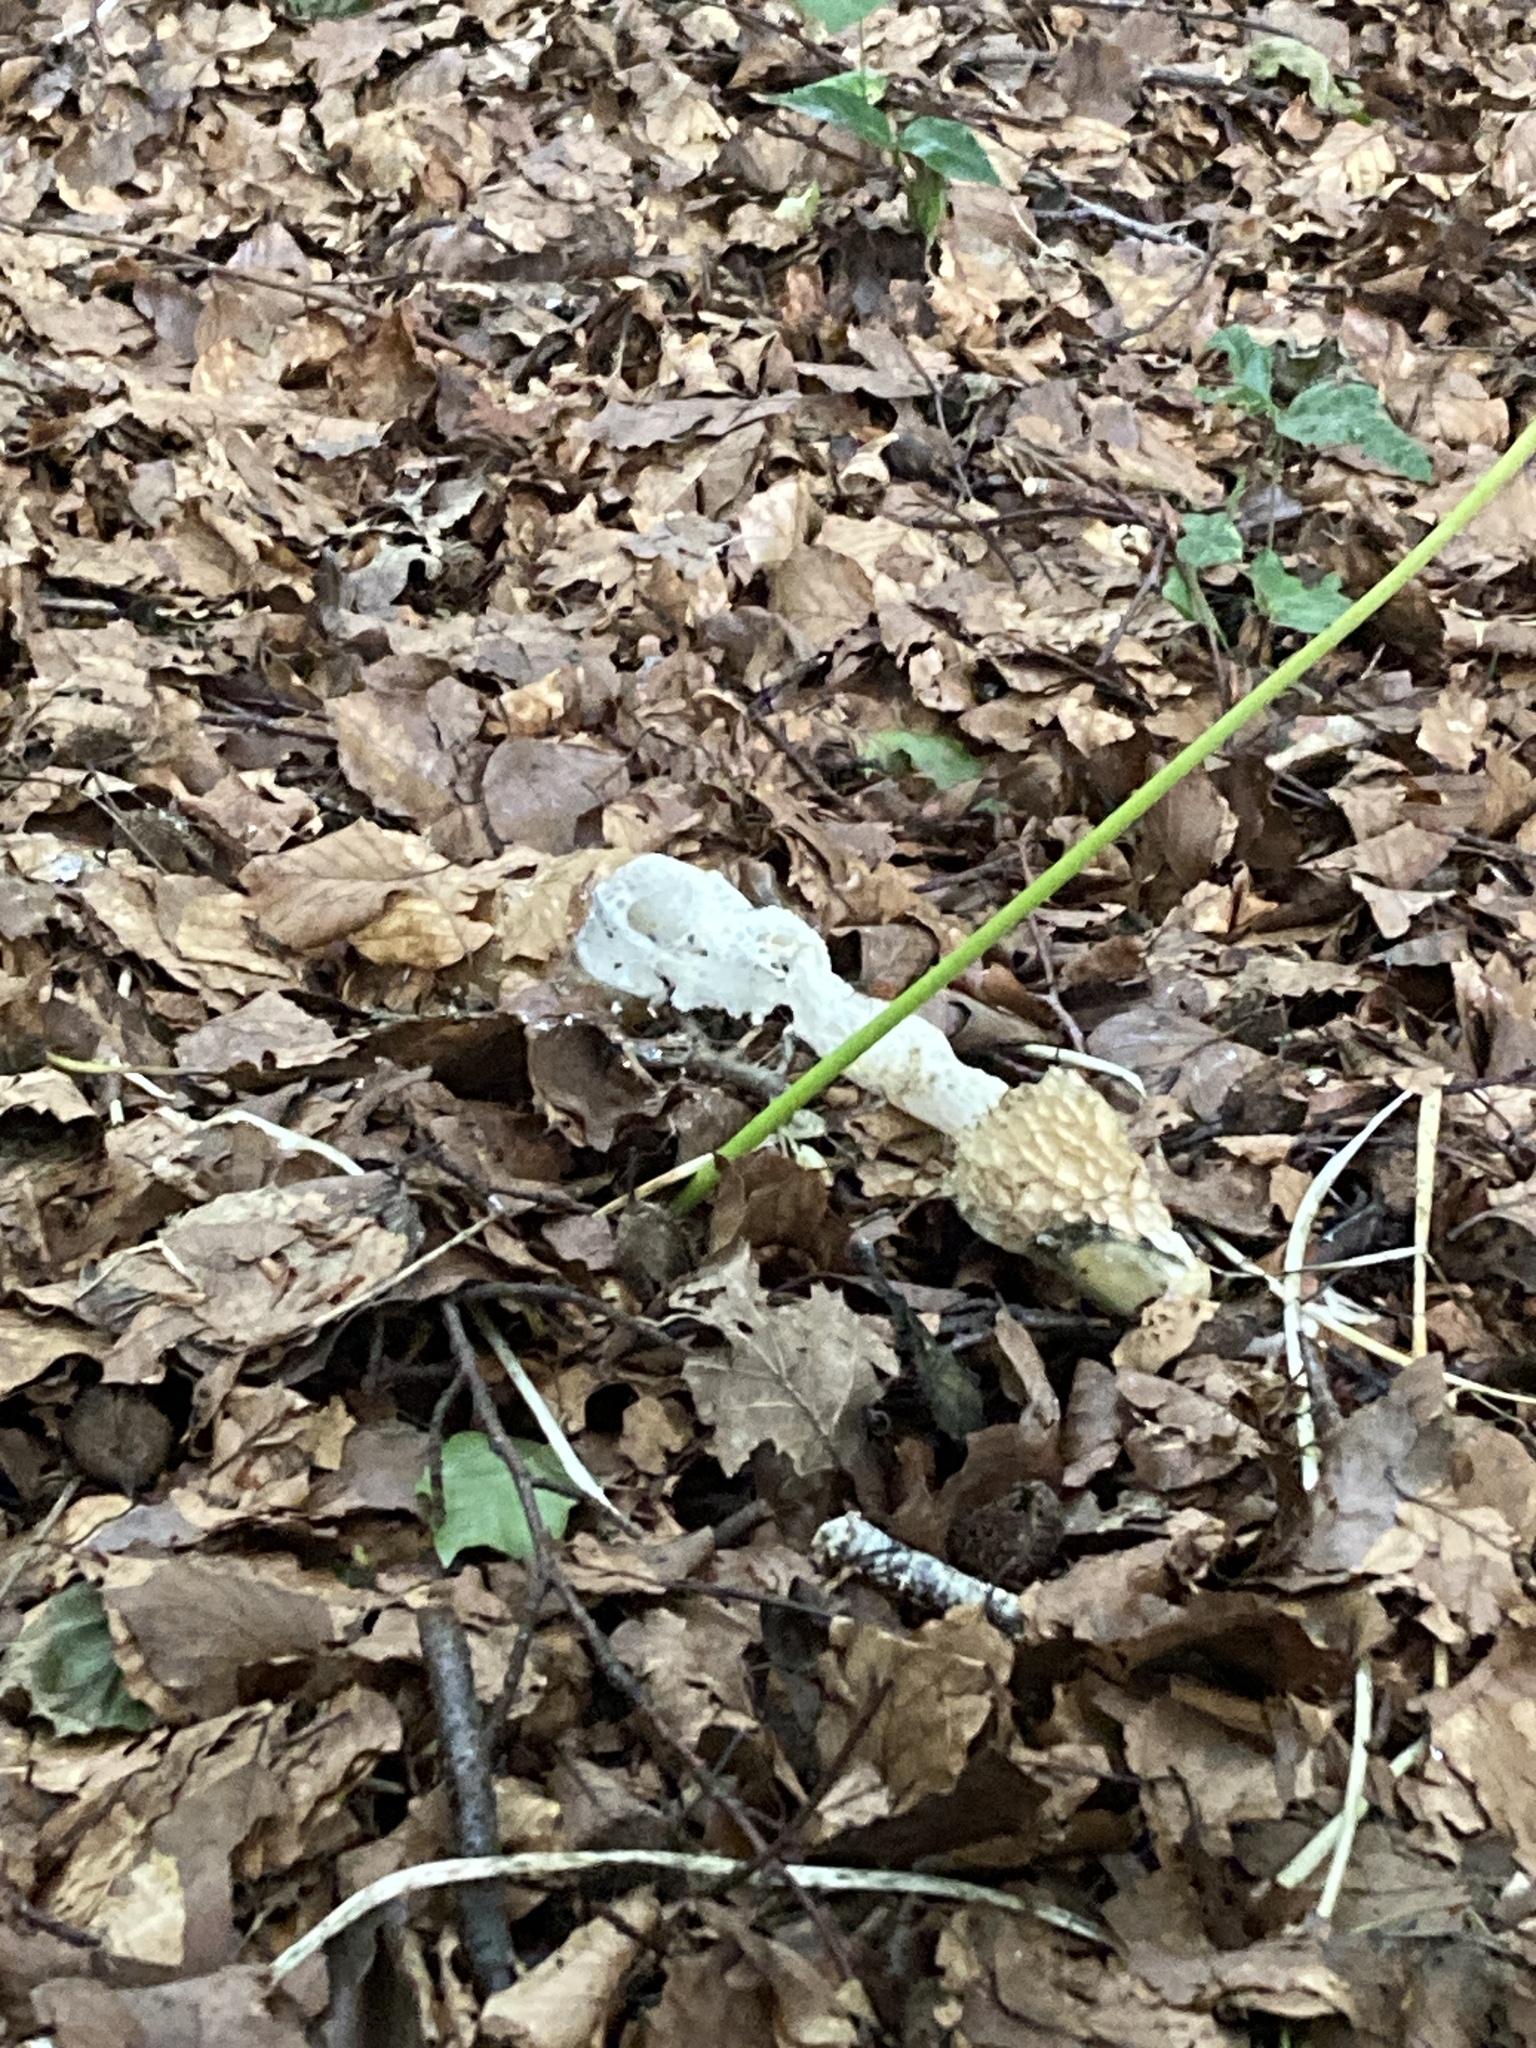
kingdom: Fungi
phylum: Basidiomycota
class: Agaricomycetes
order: Phallales
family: Phallaceae
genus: Phallus
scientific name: Phallus impudicus
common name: Common stinkhorn
